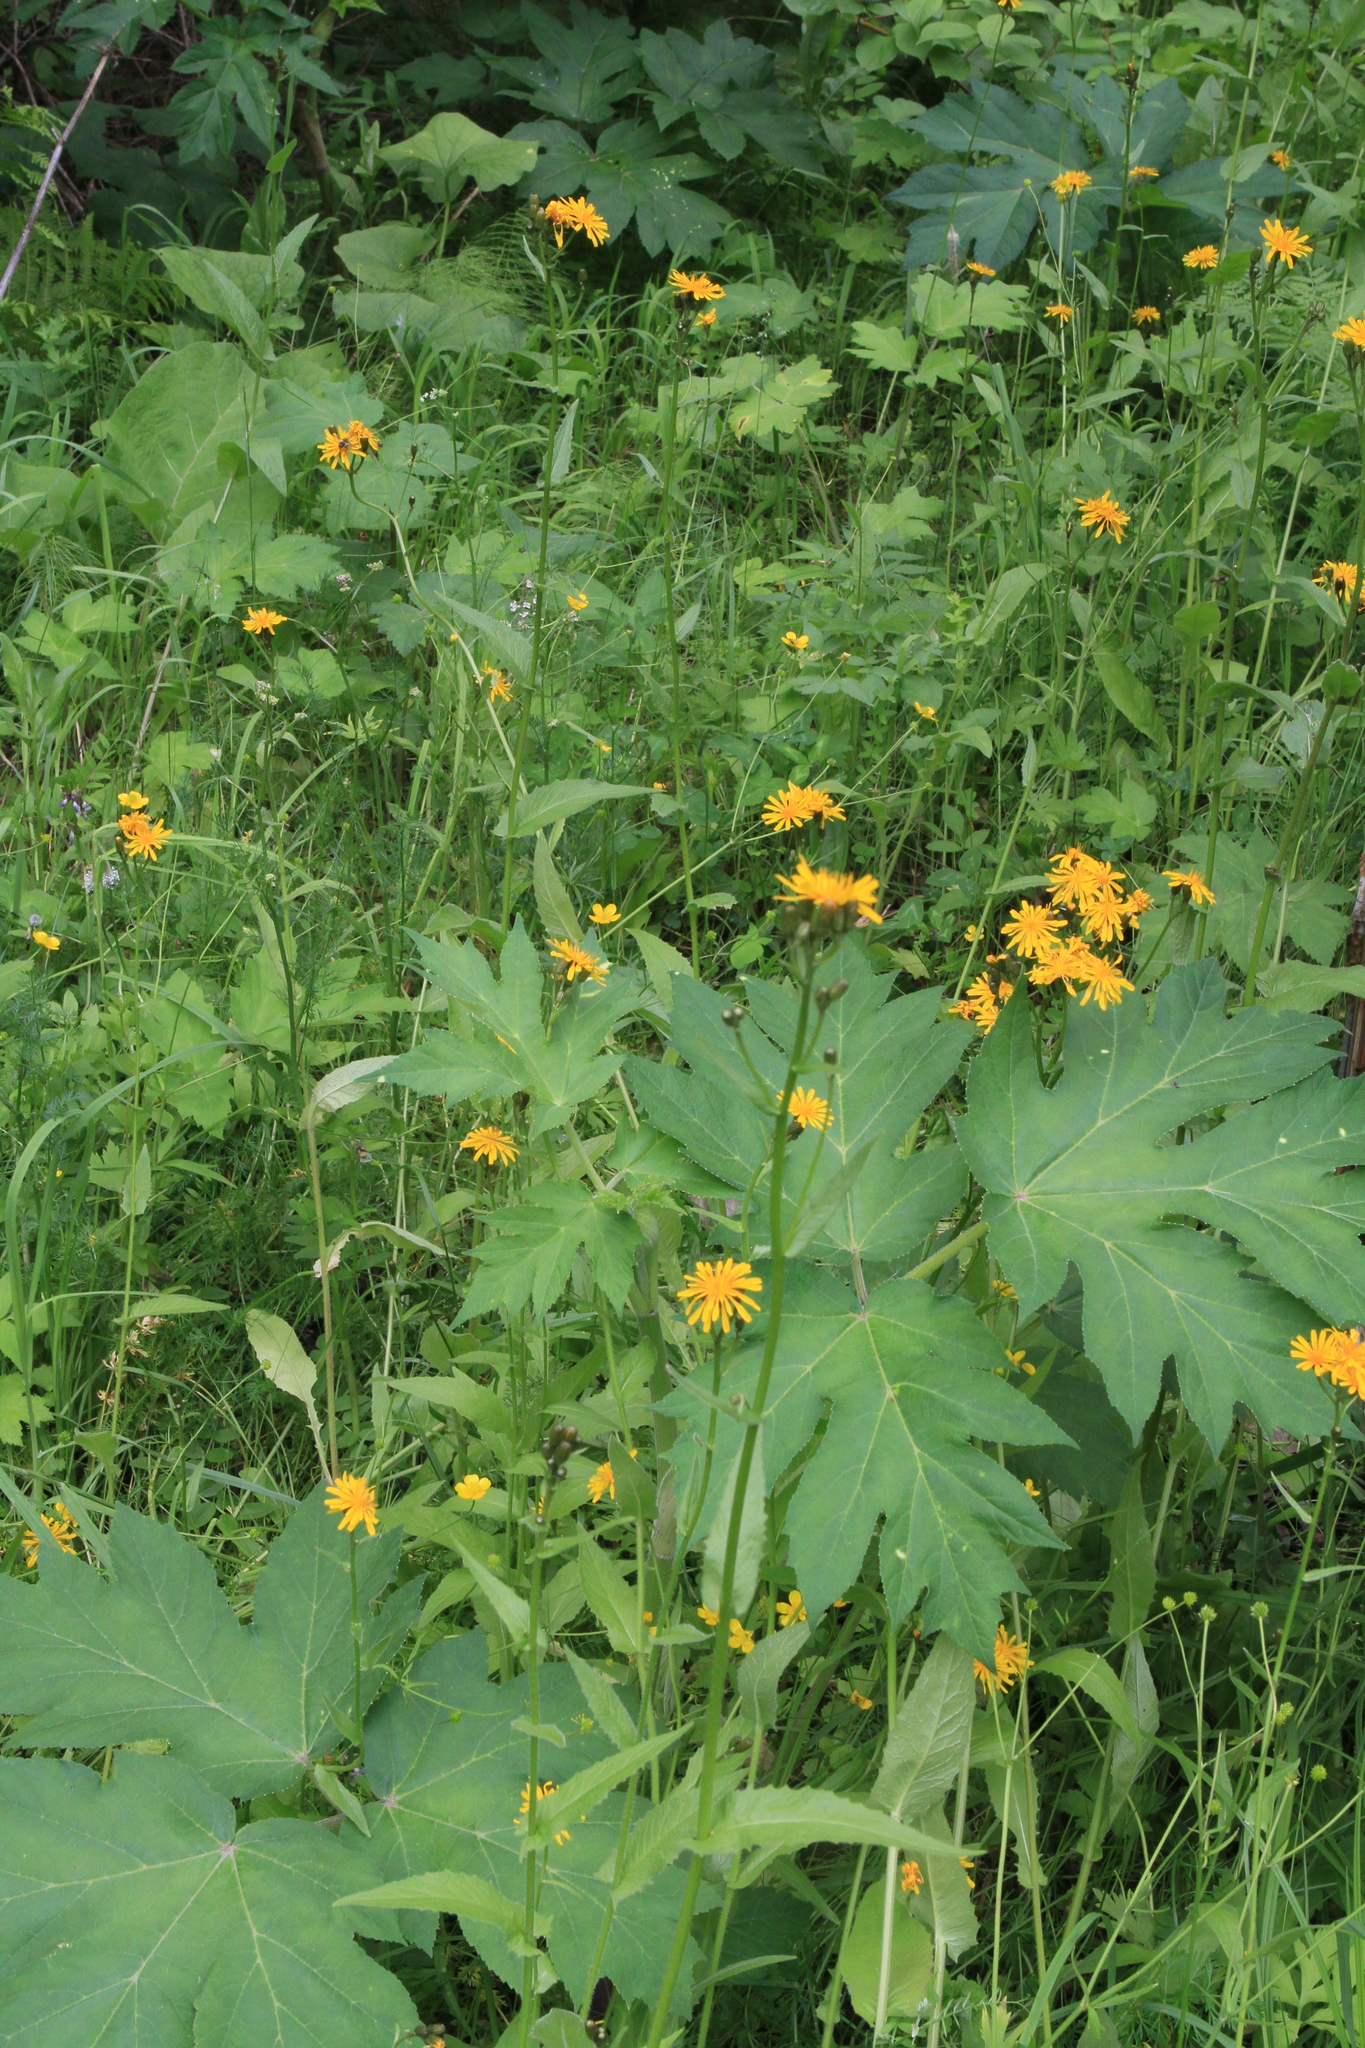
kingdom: Plantae
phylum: Tracheophyta
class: Magnoliopsida
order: Apiales
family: Apiaceae
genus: Heracleum
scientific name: Heracleum dissectum
